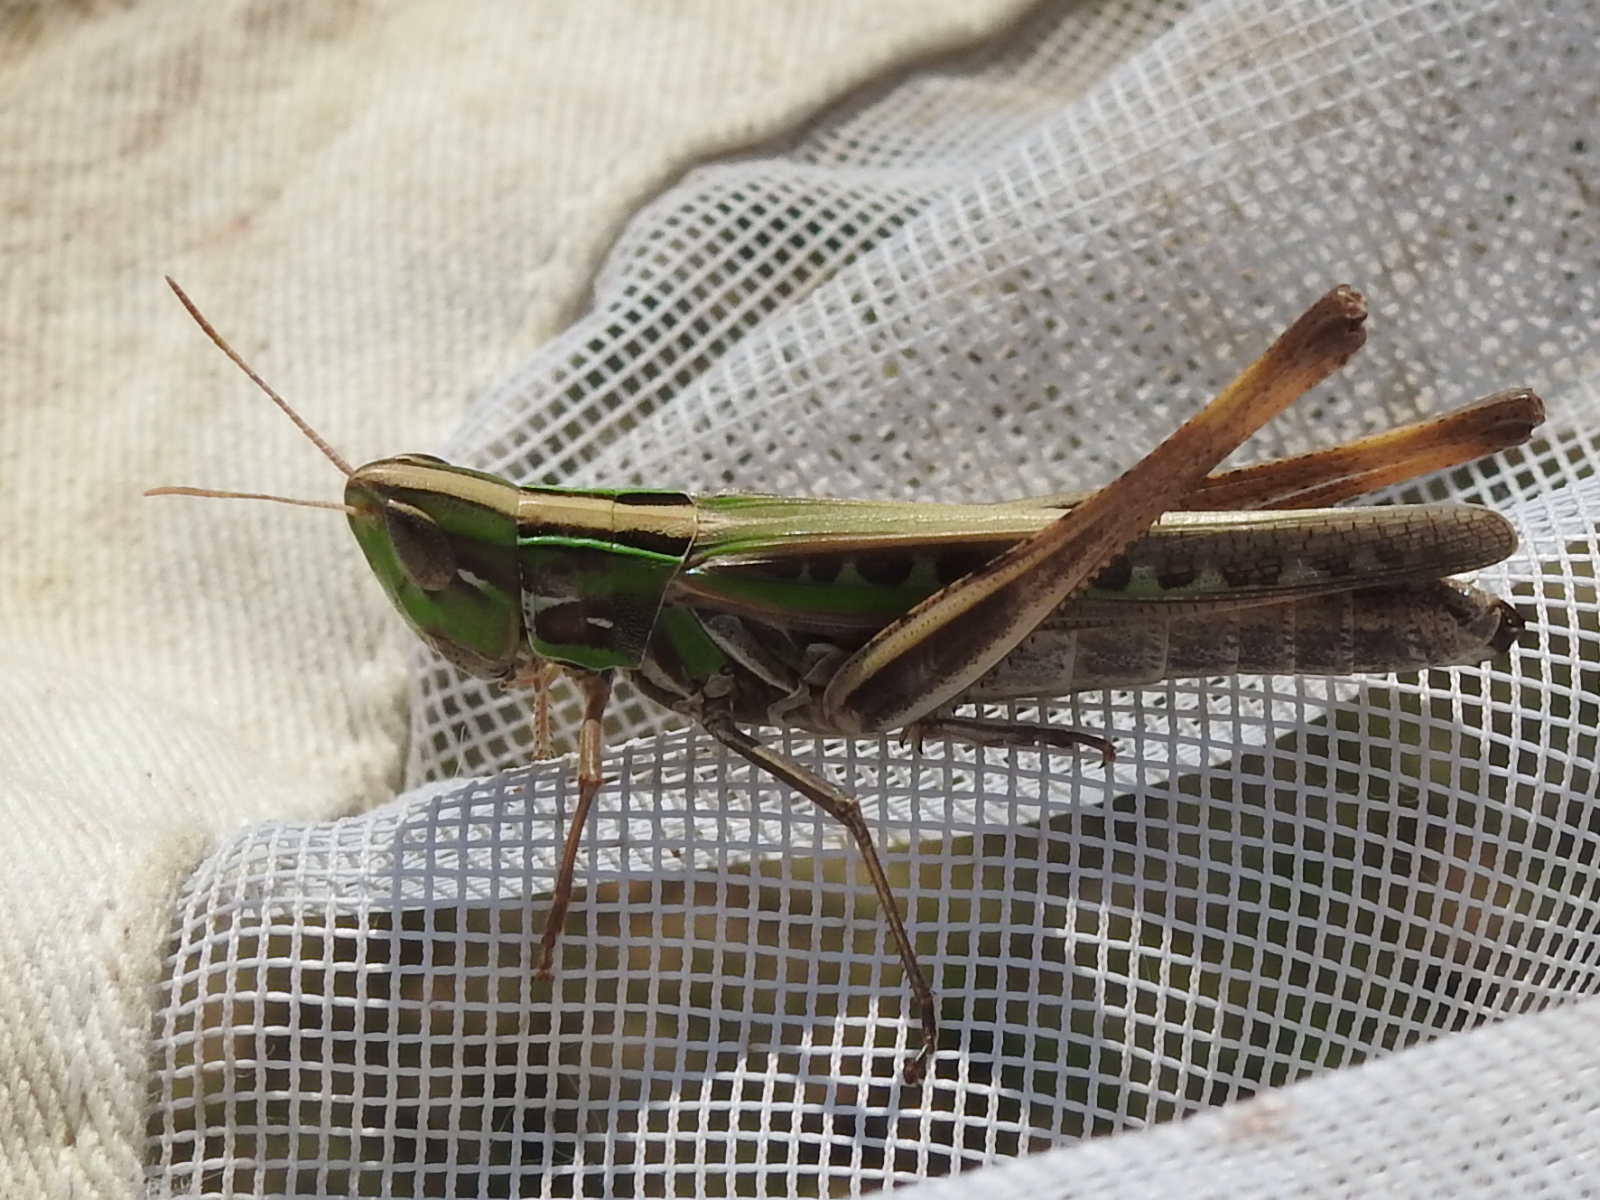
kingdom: Animalia
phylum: Arthropoda
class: Insecta
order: Orthoptera
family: Acrididae
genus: Syrbula
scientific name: Syrbula admirabilis
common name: Handsome grasshopper
